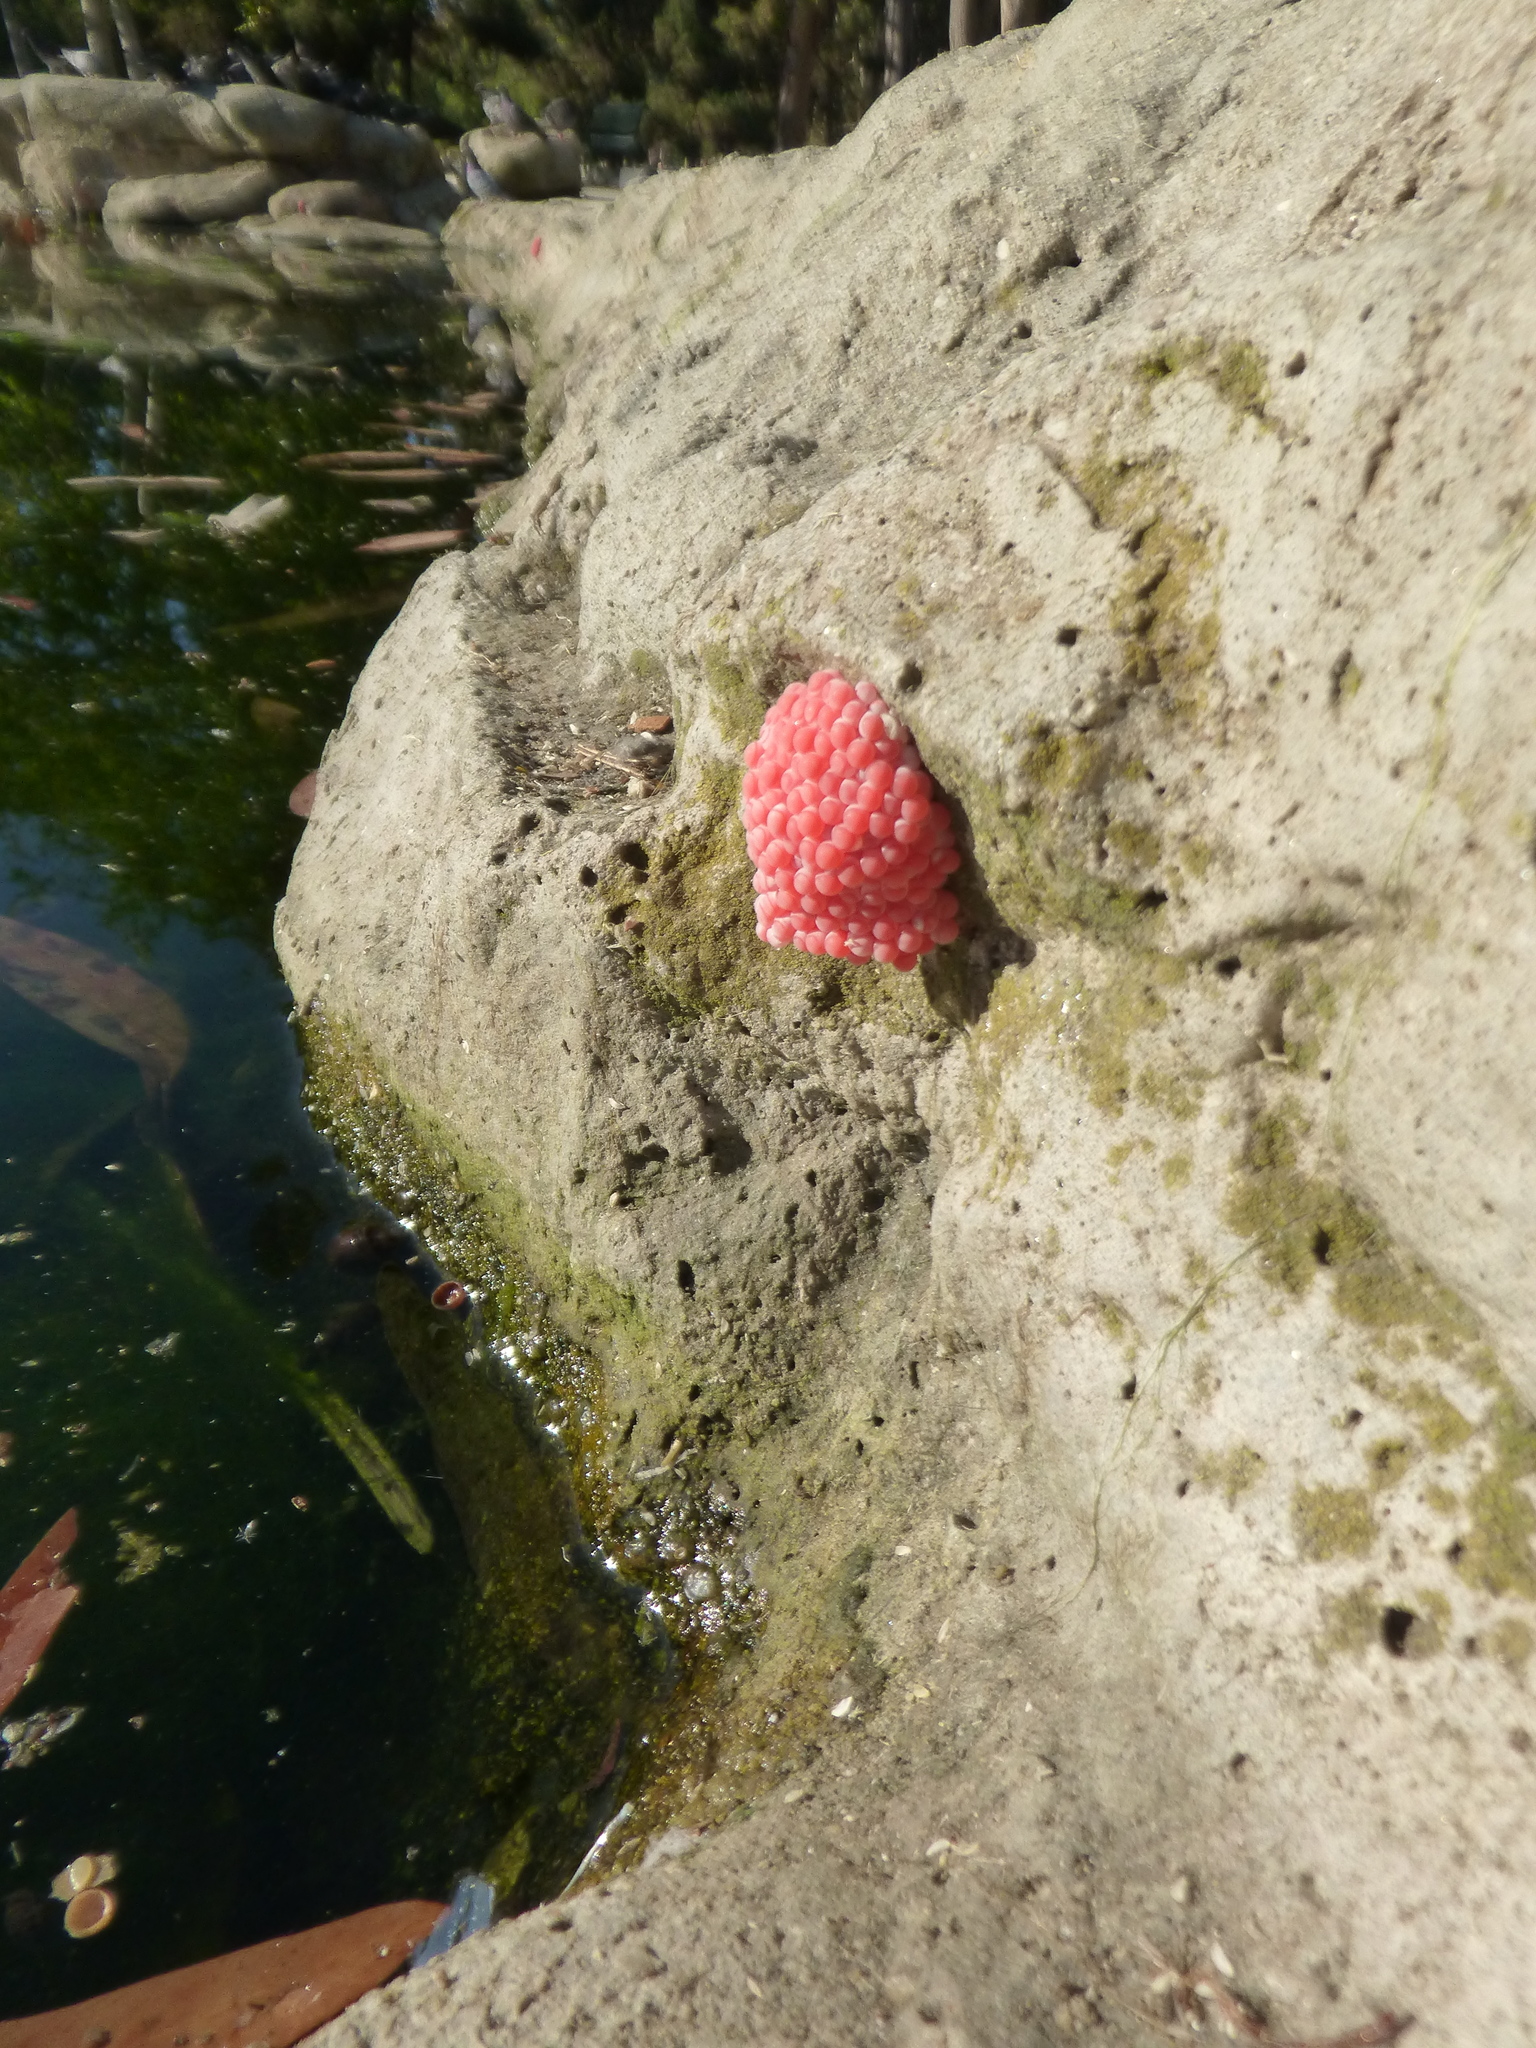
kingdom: Animalia
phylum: Mollusca
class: Gastropoda
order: Architaenioglossa
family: Ampullariidae
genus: Pomacea
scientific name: Pomacea canaliculata
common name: Channeled applesnail
